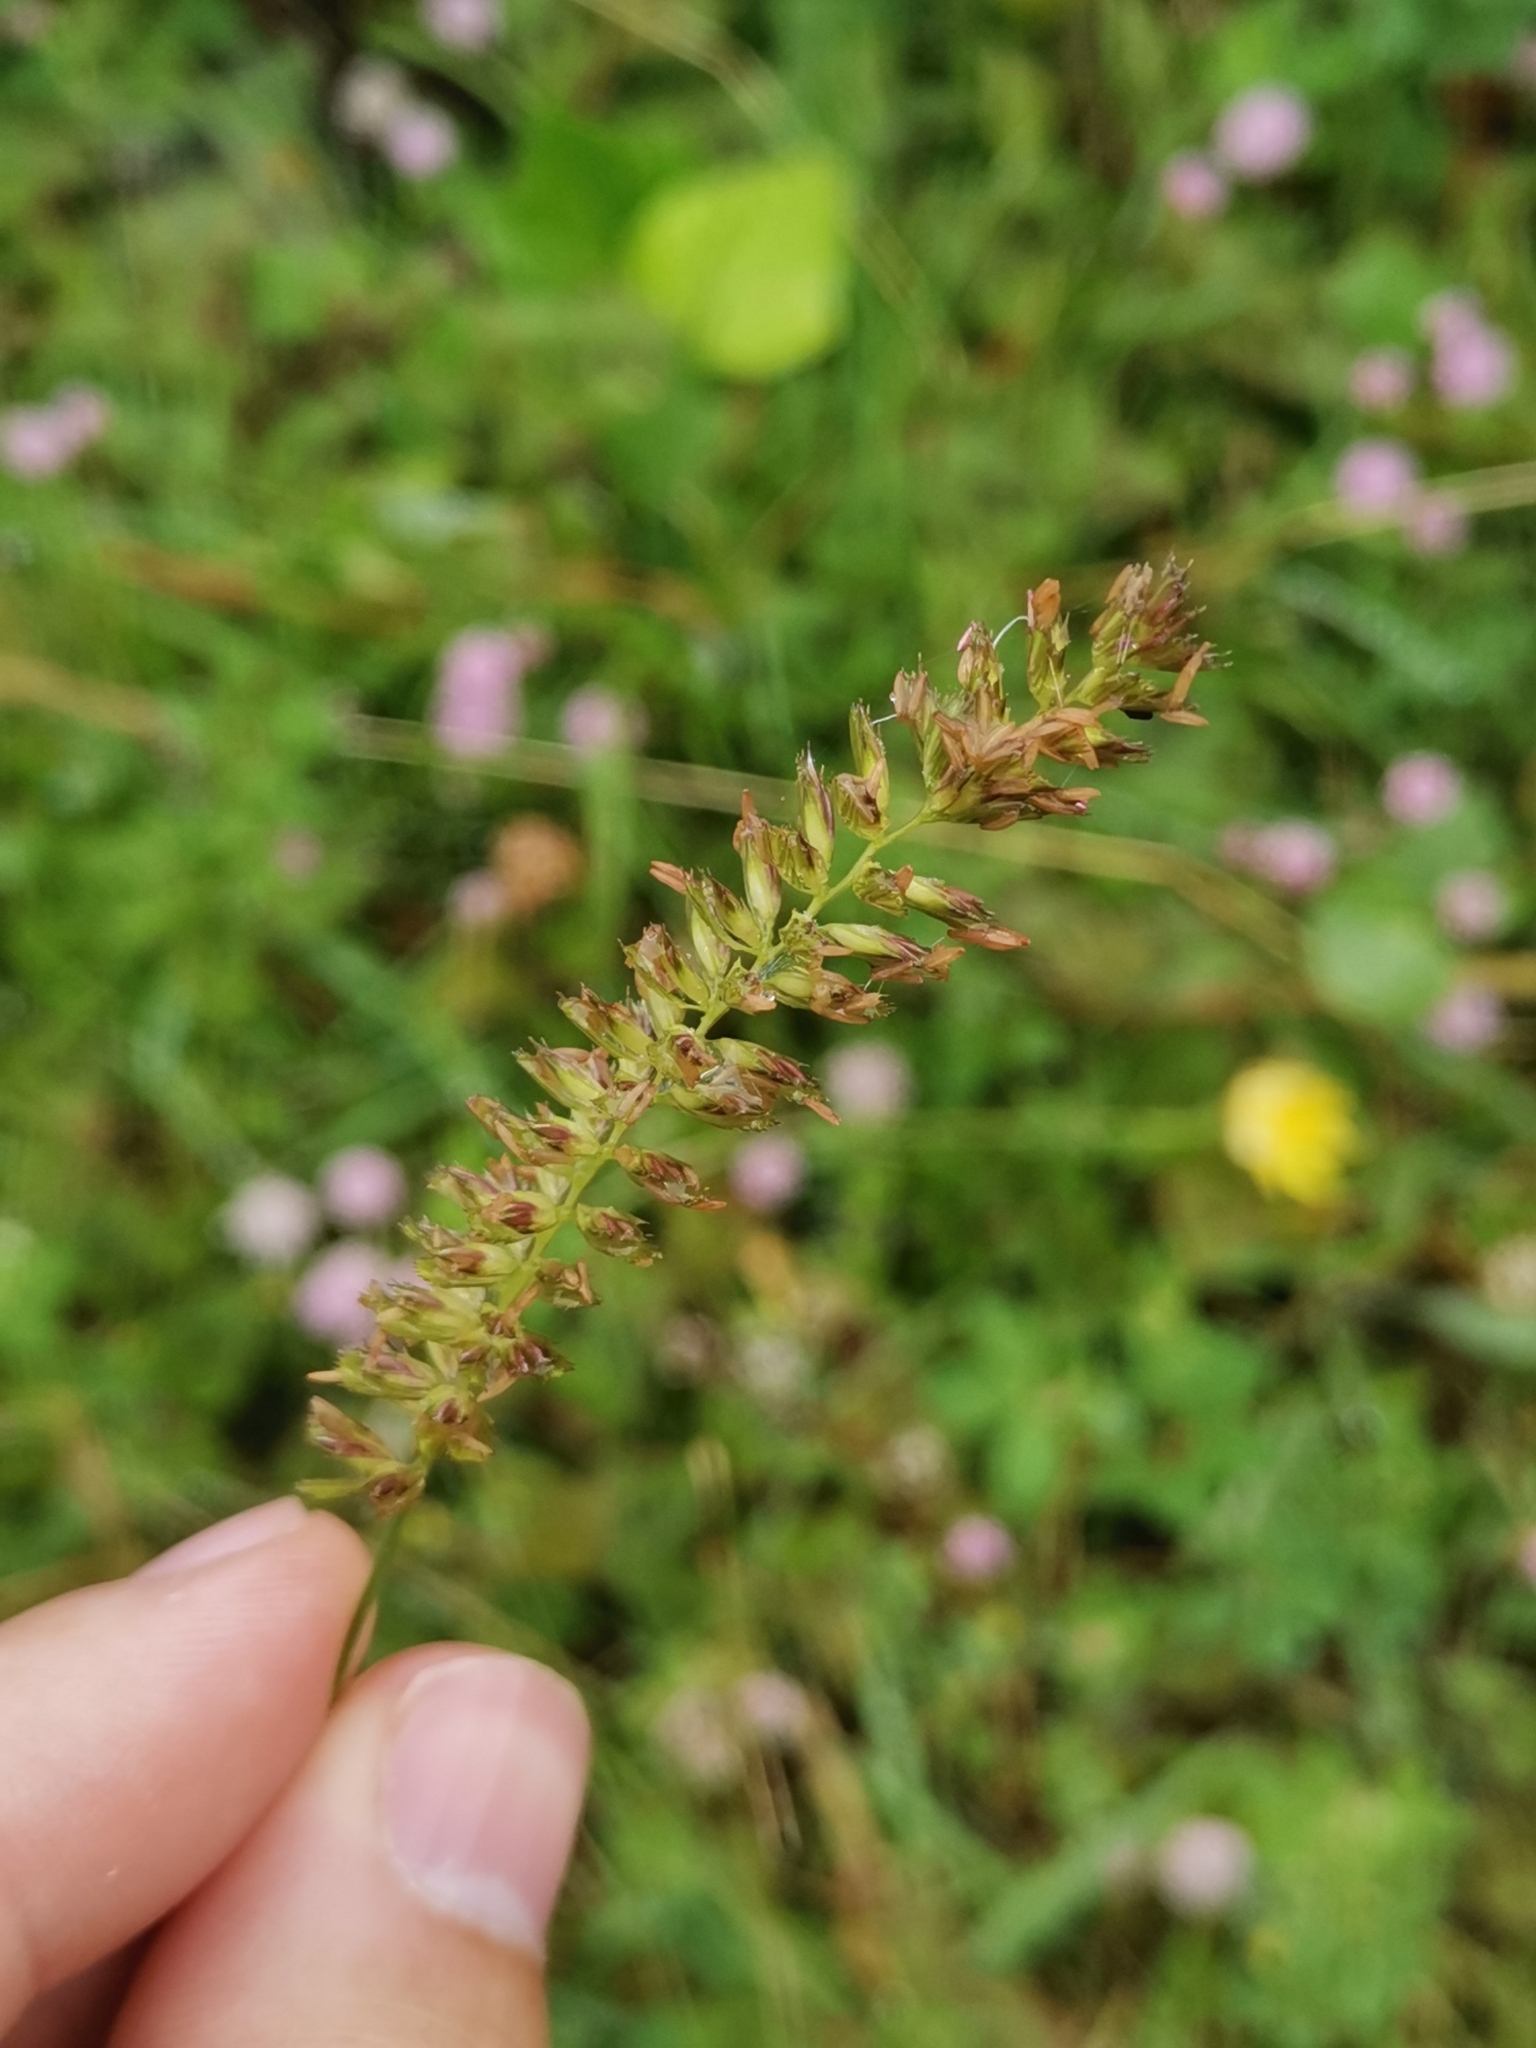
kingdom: Plantae
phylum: Tracheophyta
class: Liliopsida
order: Poales
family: Poaceae
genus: Cynosurus
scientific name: Cynosurus cristatus
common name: Crested dog's-tail
